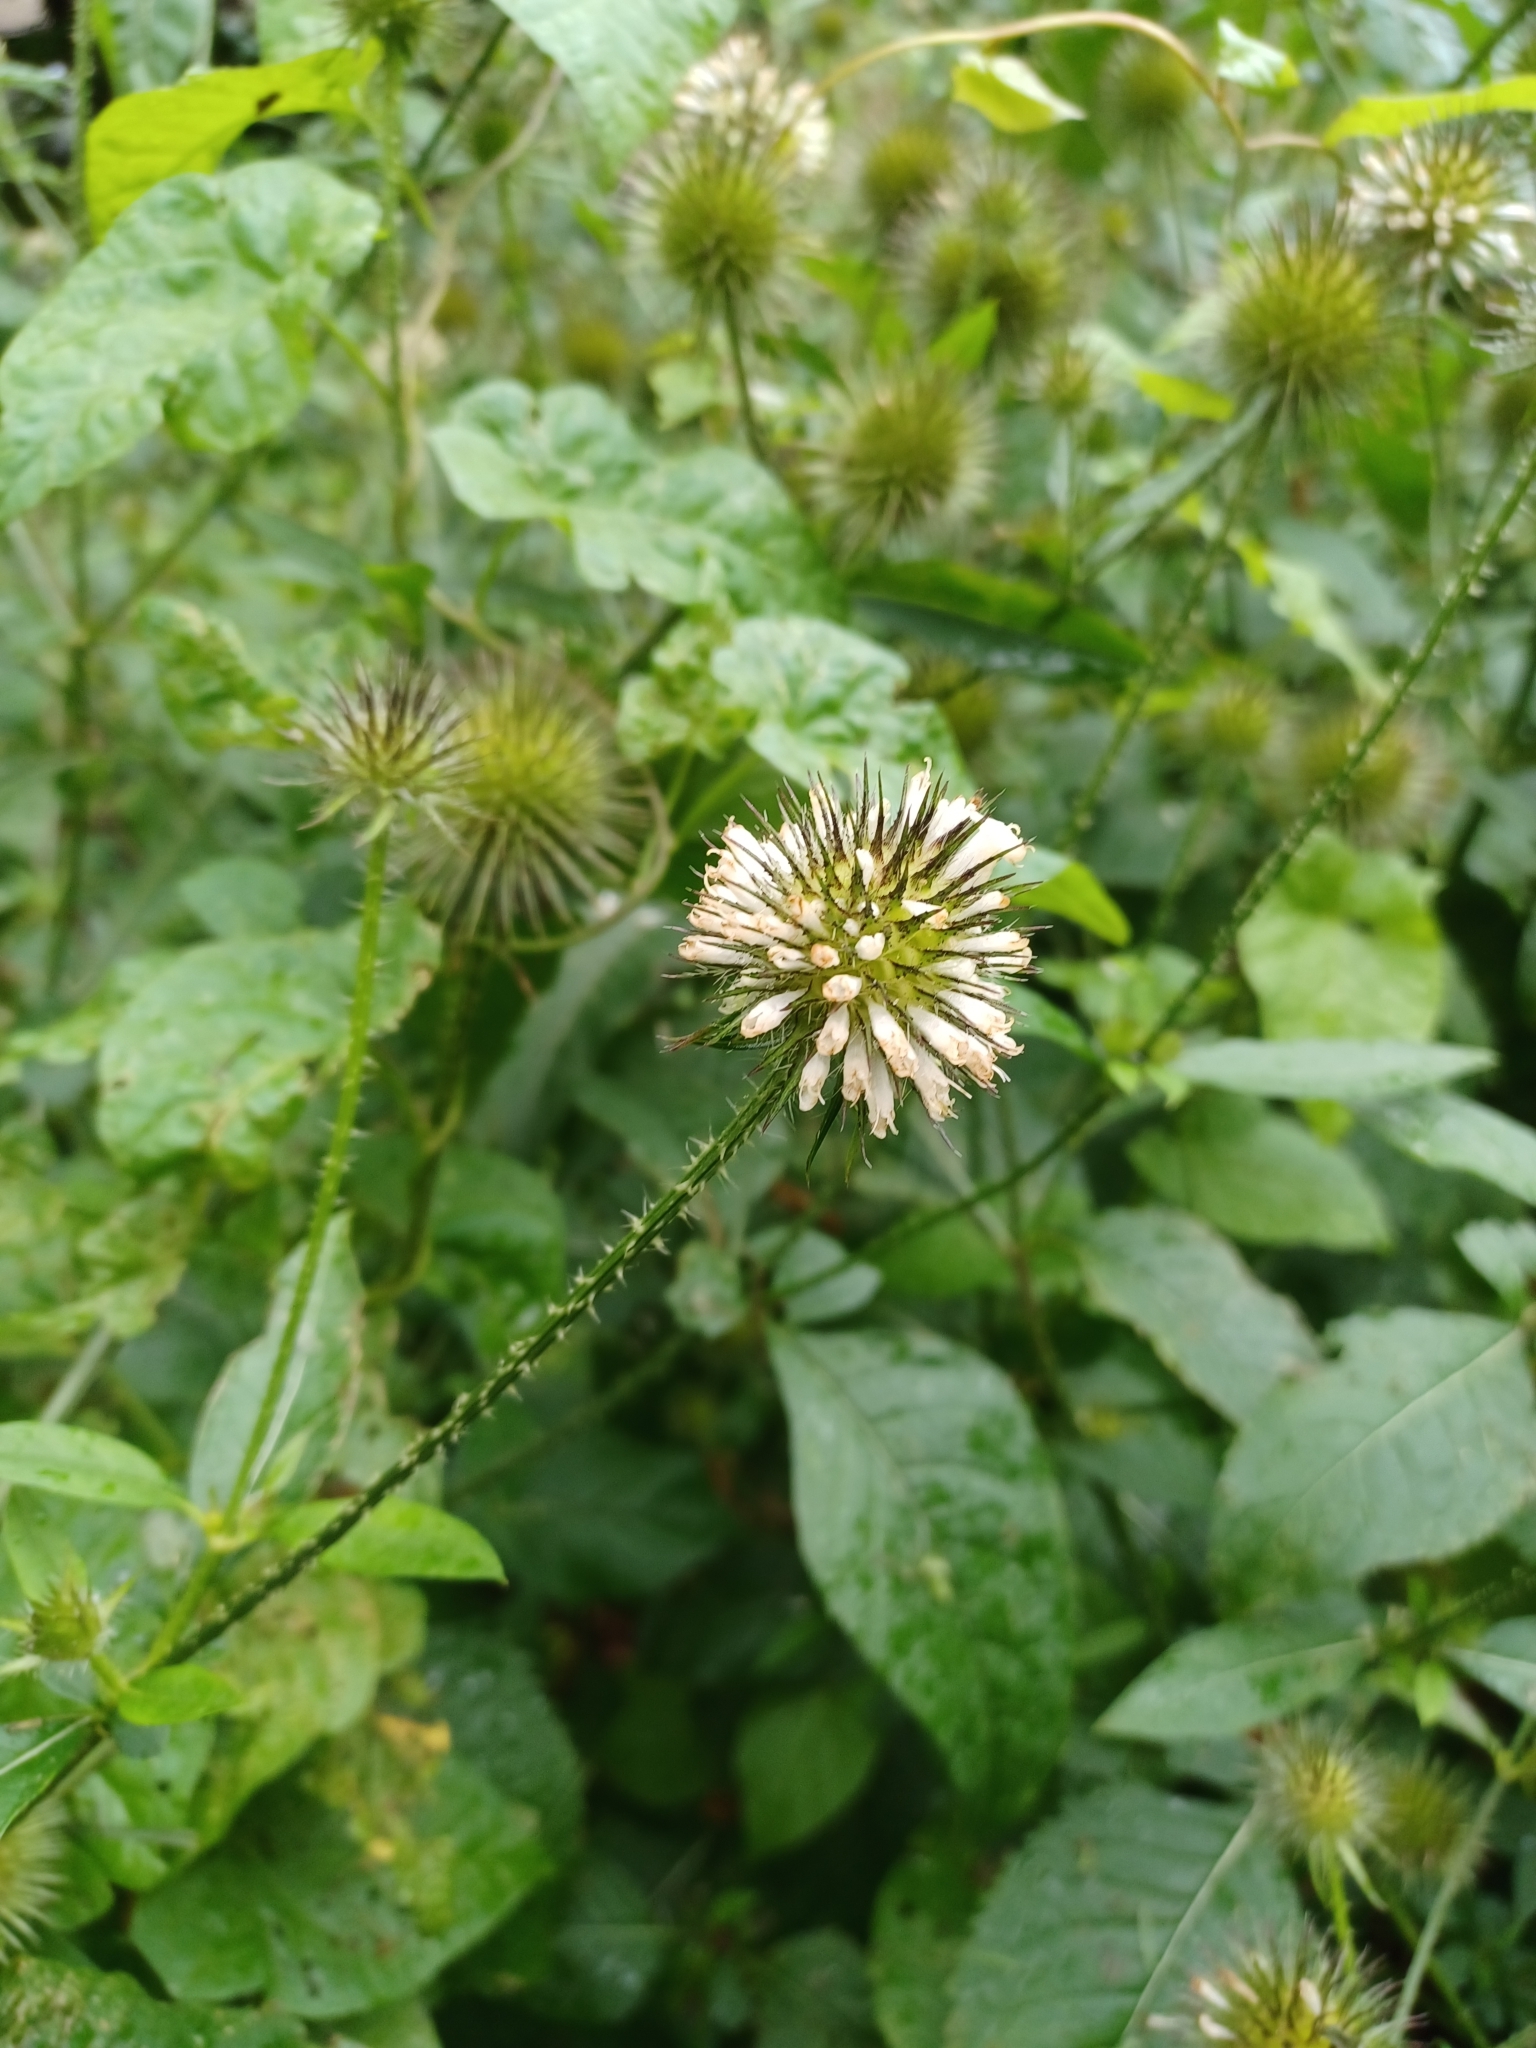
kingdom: Plantae
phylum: Tracheophyta
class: Magnoliopsida
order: Dipsacales
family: Caprifoliaceae
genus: Dipsacus
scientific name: Dipsacus strigosus
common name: Yellow-flowered teasel
